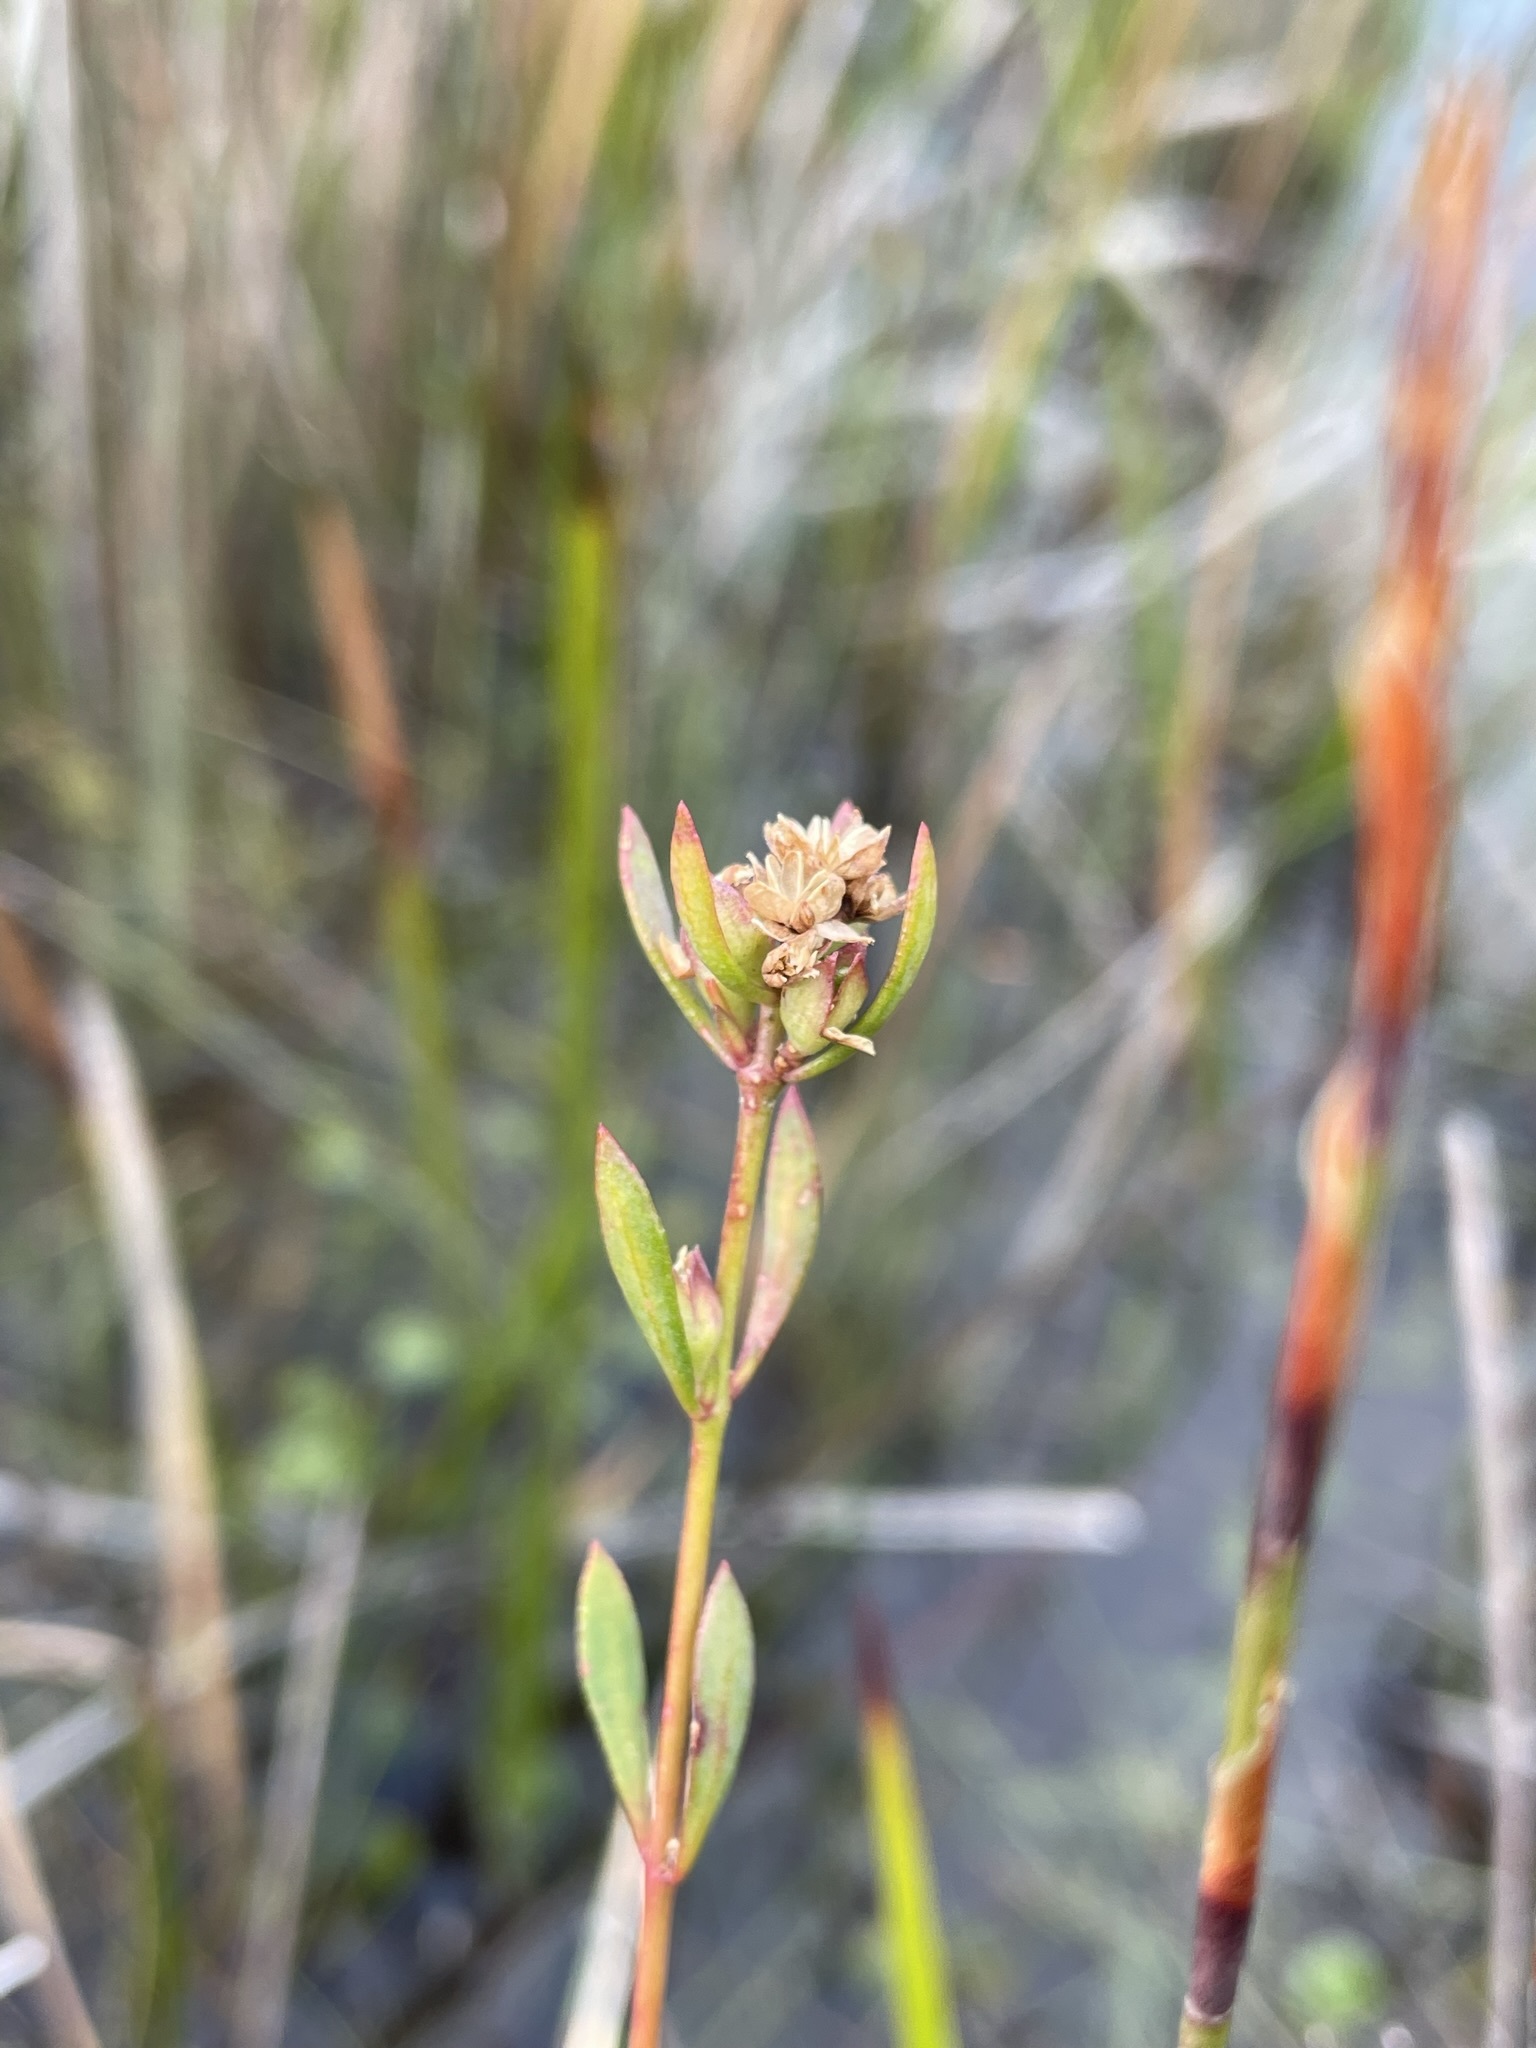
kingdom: Plantae
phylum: Tracheophyta
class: Magnoliopsida
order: Sapindales
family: Rutaceae
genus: Boronia
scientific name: Boronia parviflora
